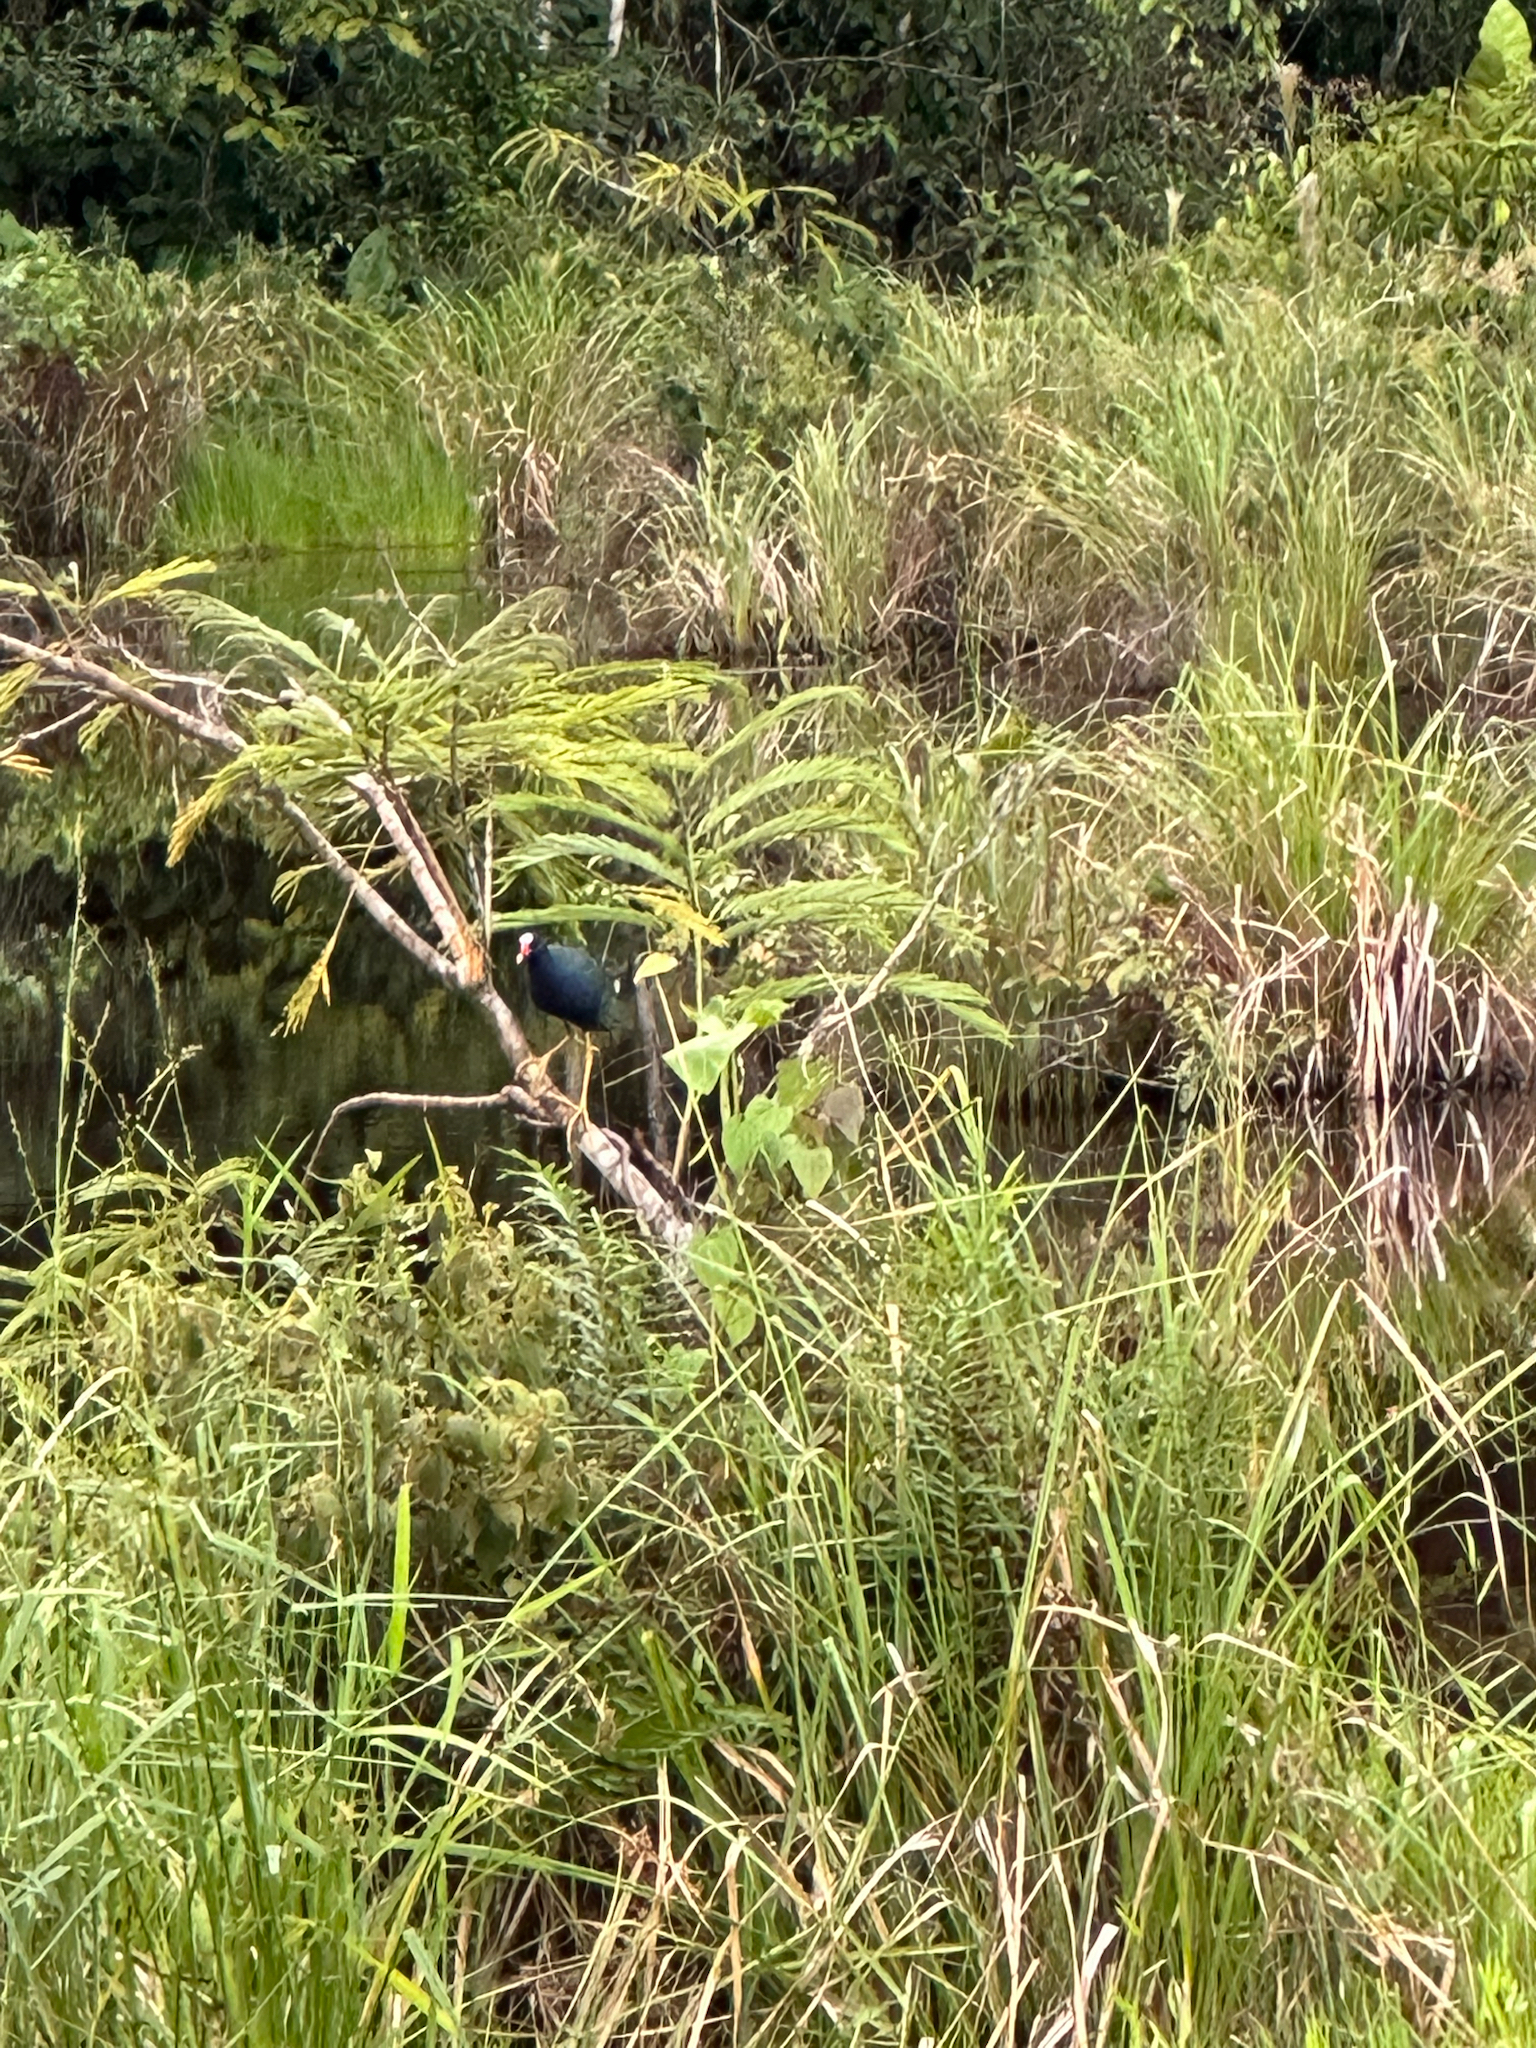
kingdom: Animalia
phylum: Chordata
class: Aves
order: Gruiformes
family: Rallidae
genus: Porphyrio
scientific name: Porphyrio martinica
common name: Purple gallinule
